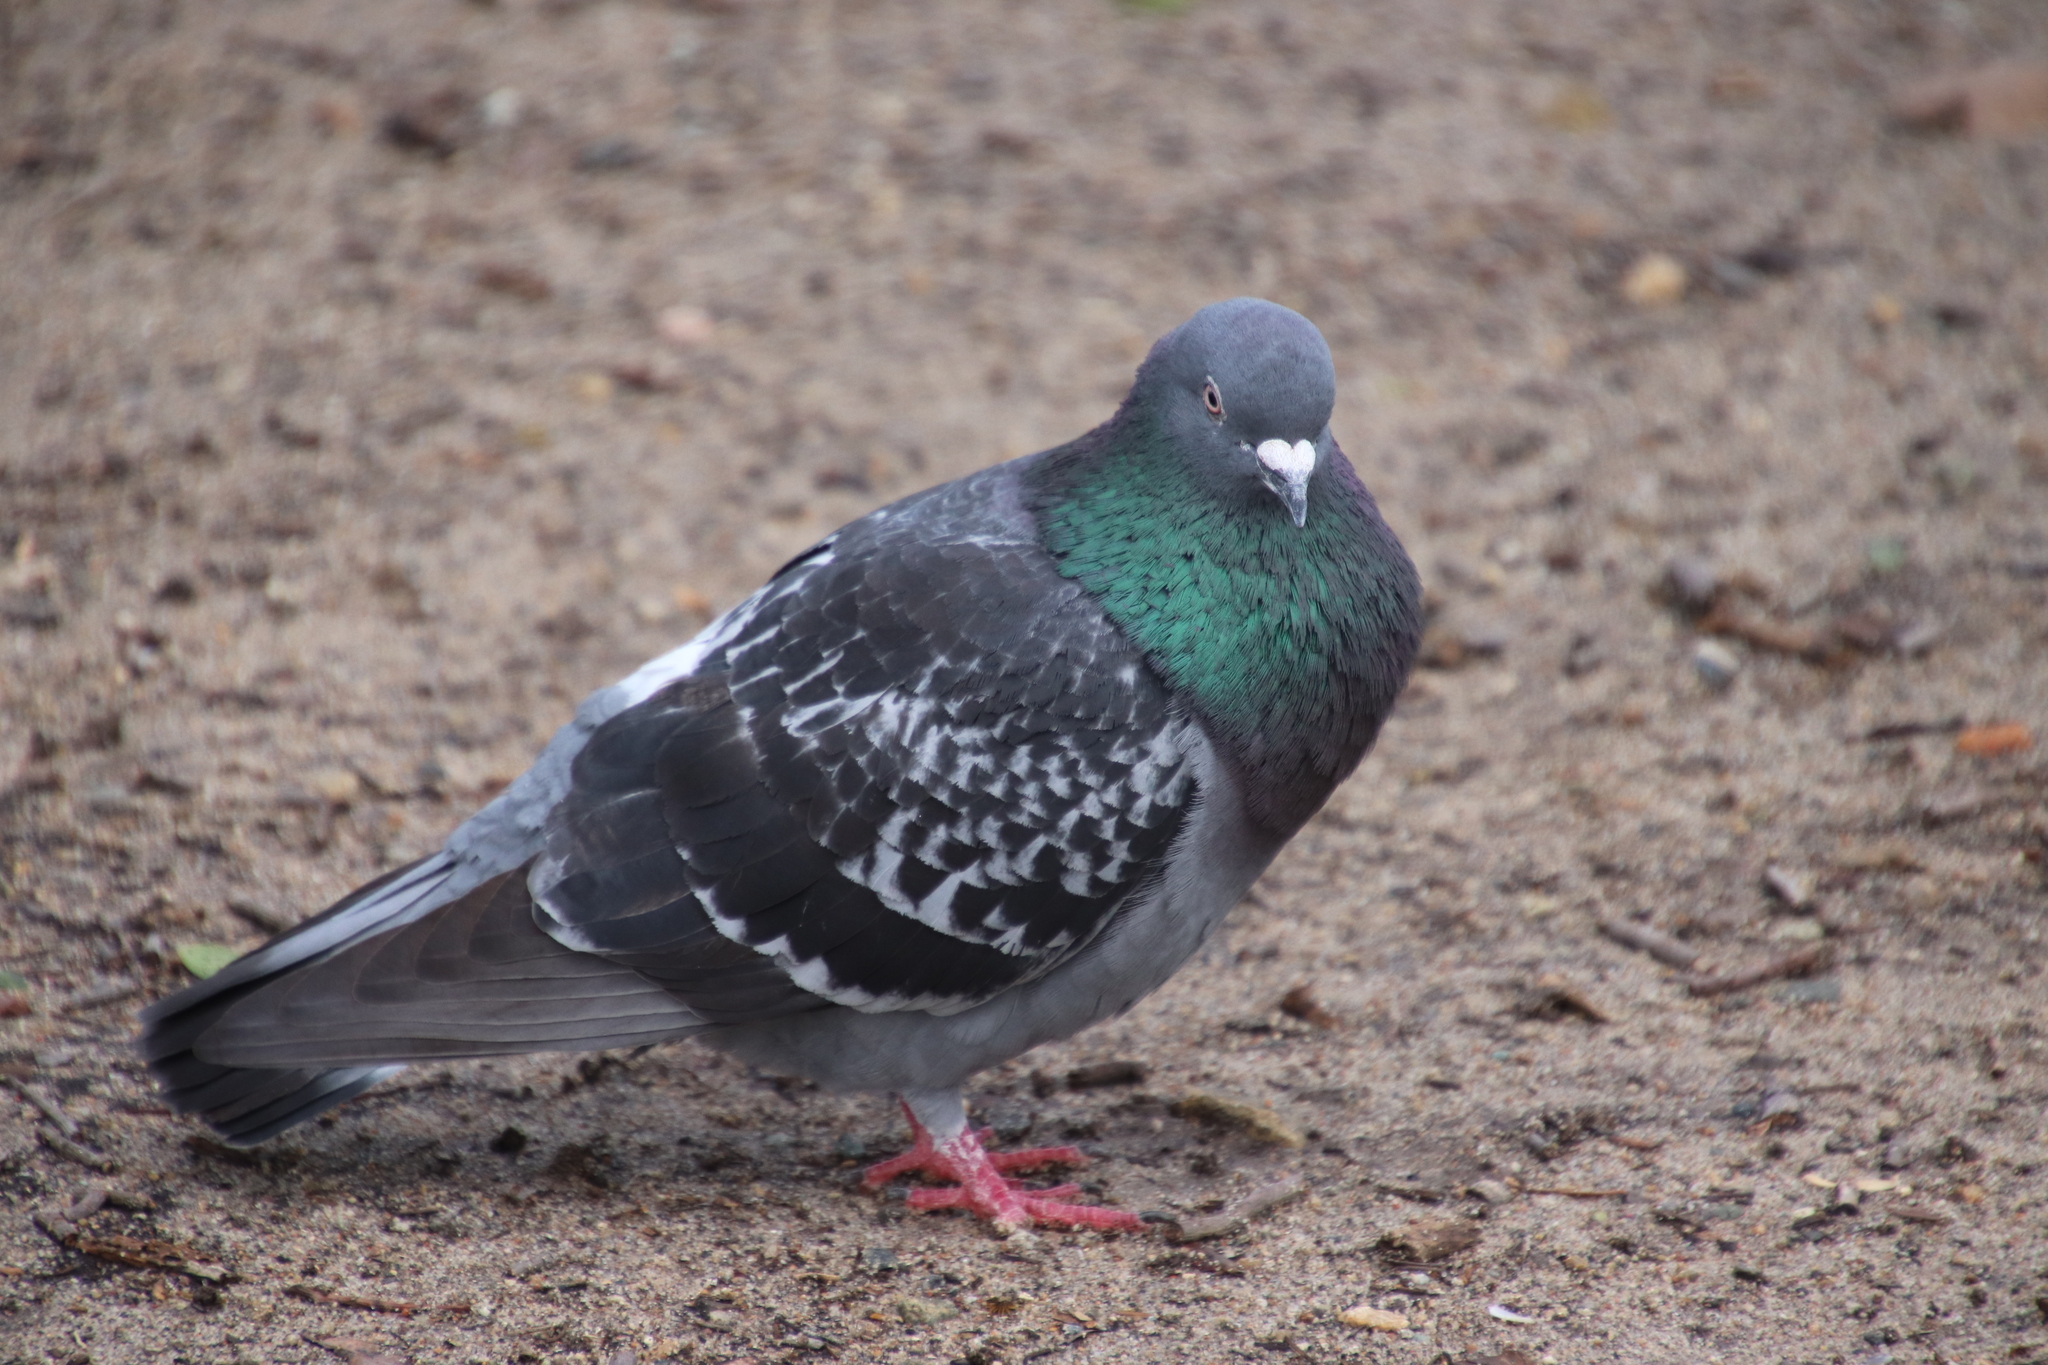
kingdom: Animalia
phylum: Chordata
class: Aves
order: Columbiformes
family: Columbidae
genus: Columba
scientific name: Columba livia
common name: Rock pigeon
